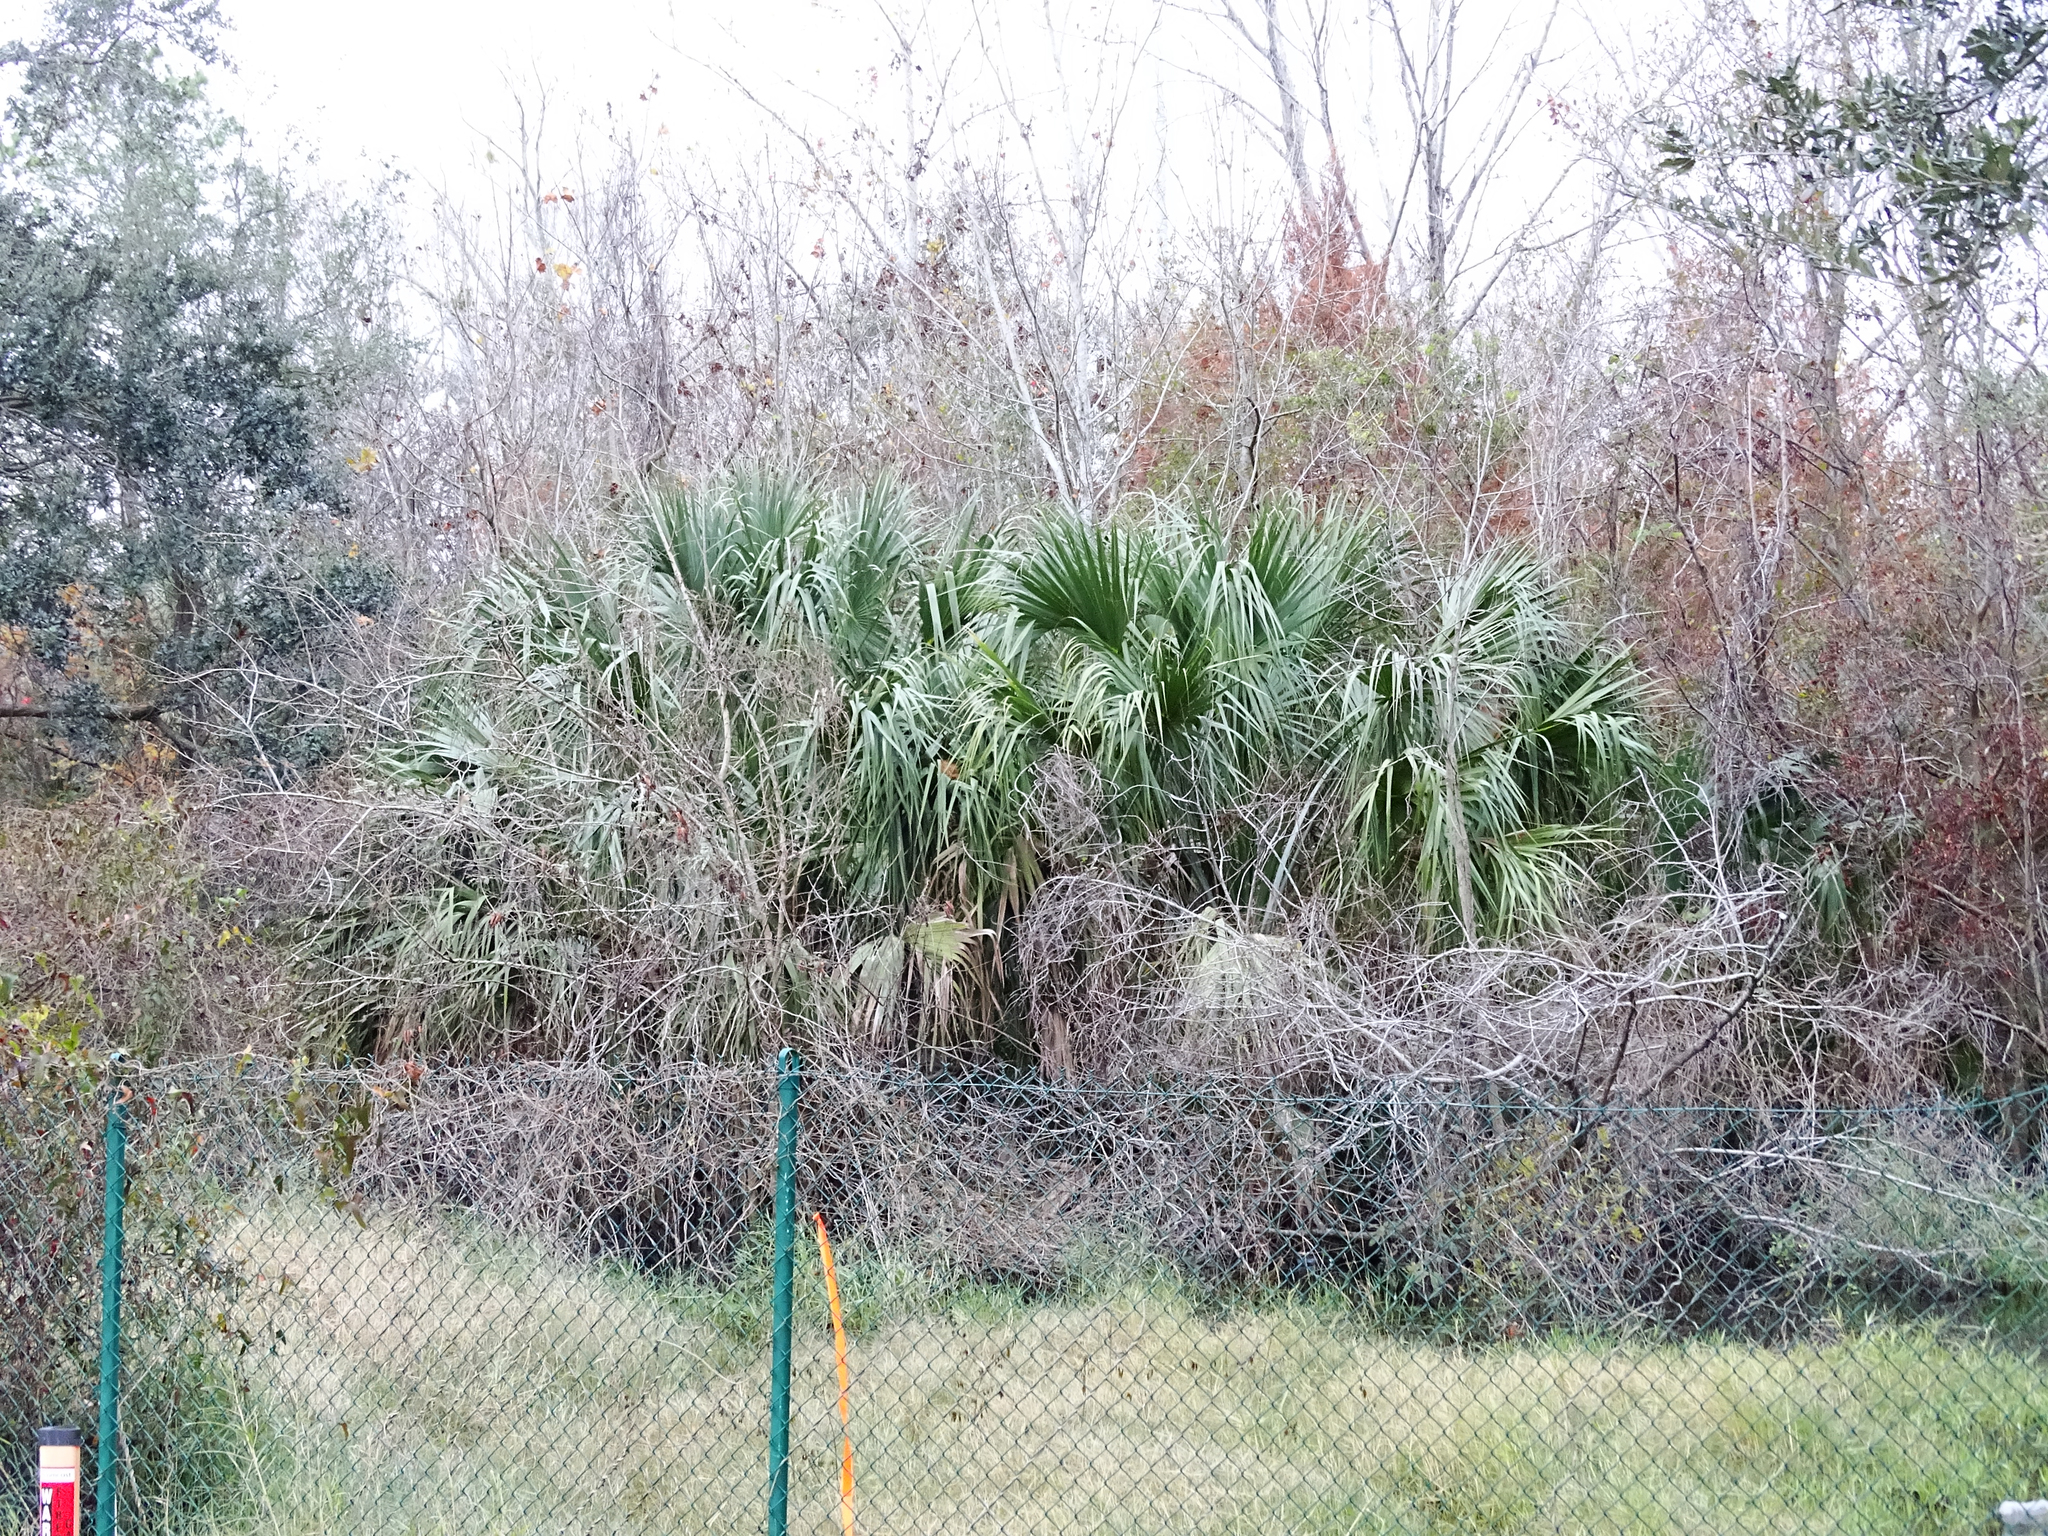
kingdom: Plantae
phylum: Tracheophyta
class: Liliopsida
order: Arecales
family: Arecaceae
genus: Sabal
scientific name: Sabal palmetto
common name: Blue palmetto
